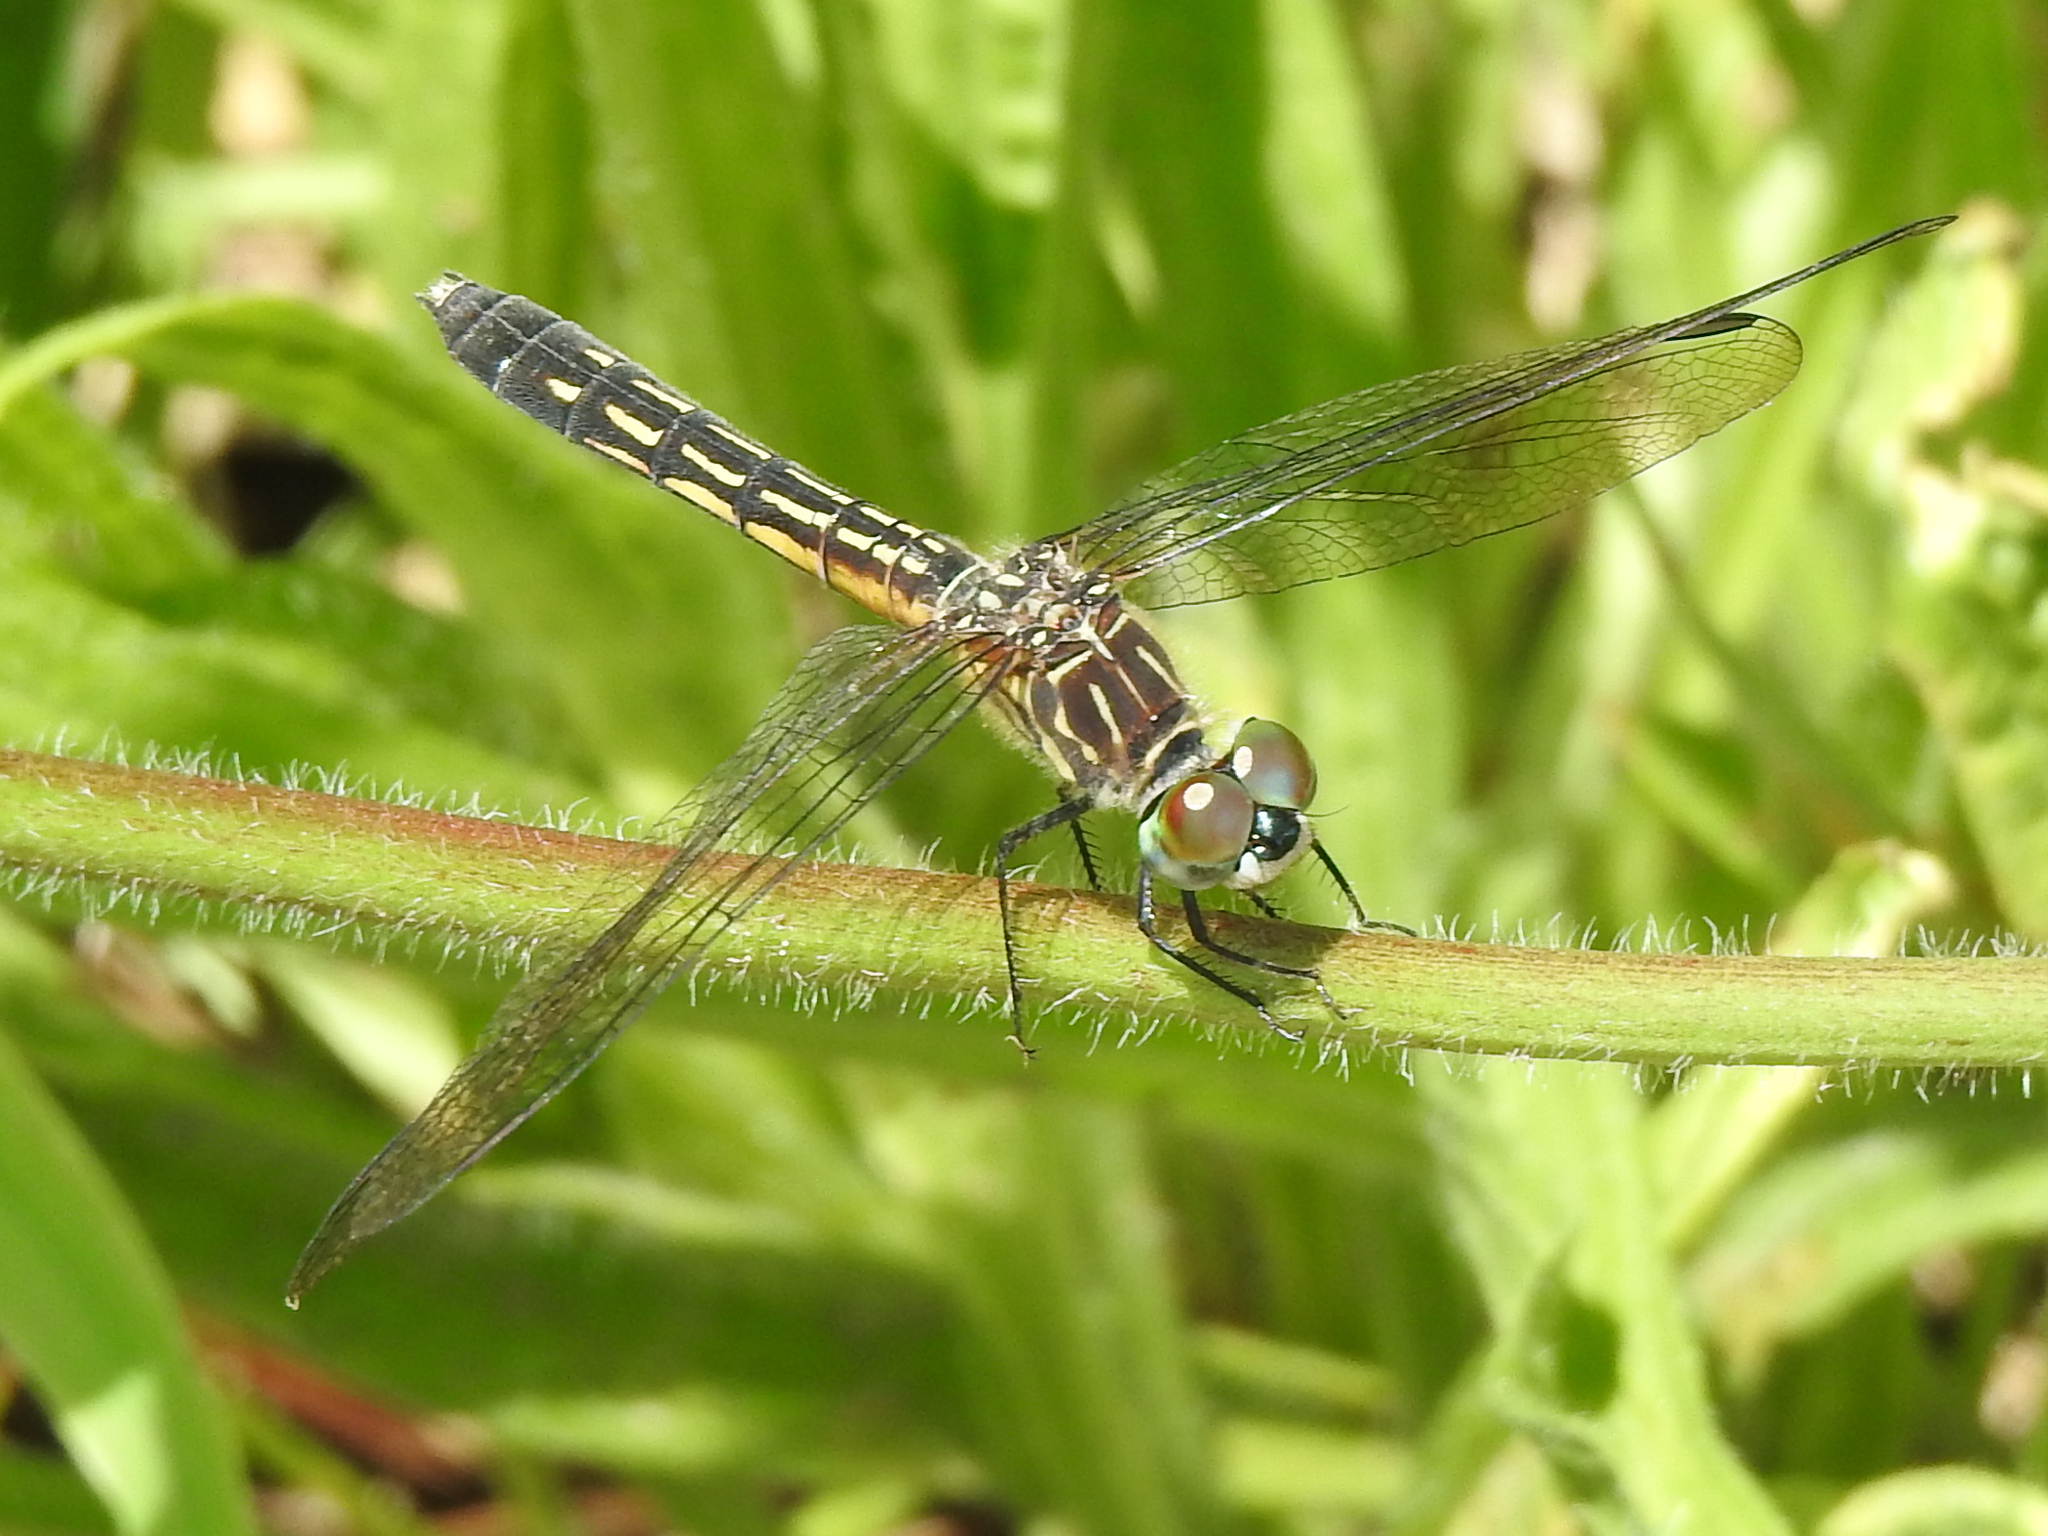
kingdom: Animalia
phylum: Arthropoda
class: Insecta
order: Odonata
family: Libellulidae
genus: Pachydiplax
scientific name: Pachydiplax longipennis
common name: Blue dasher
